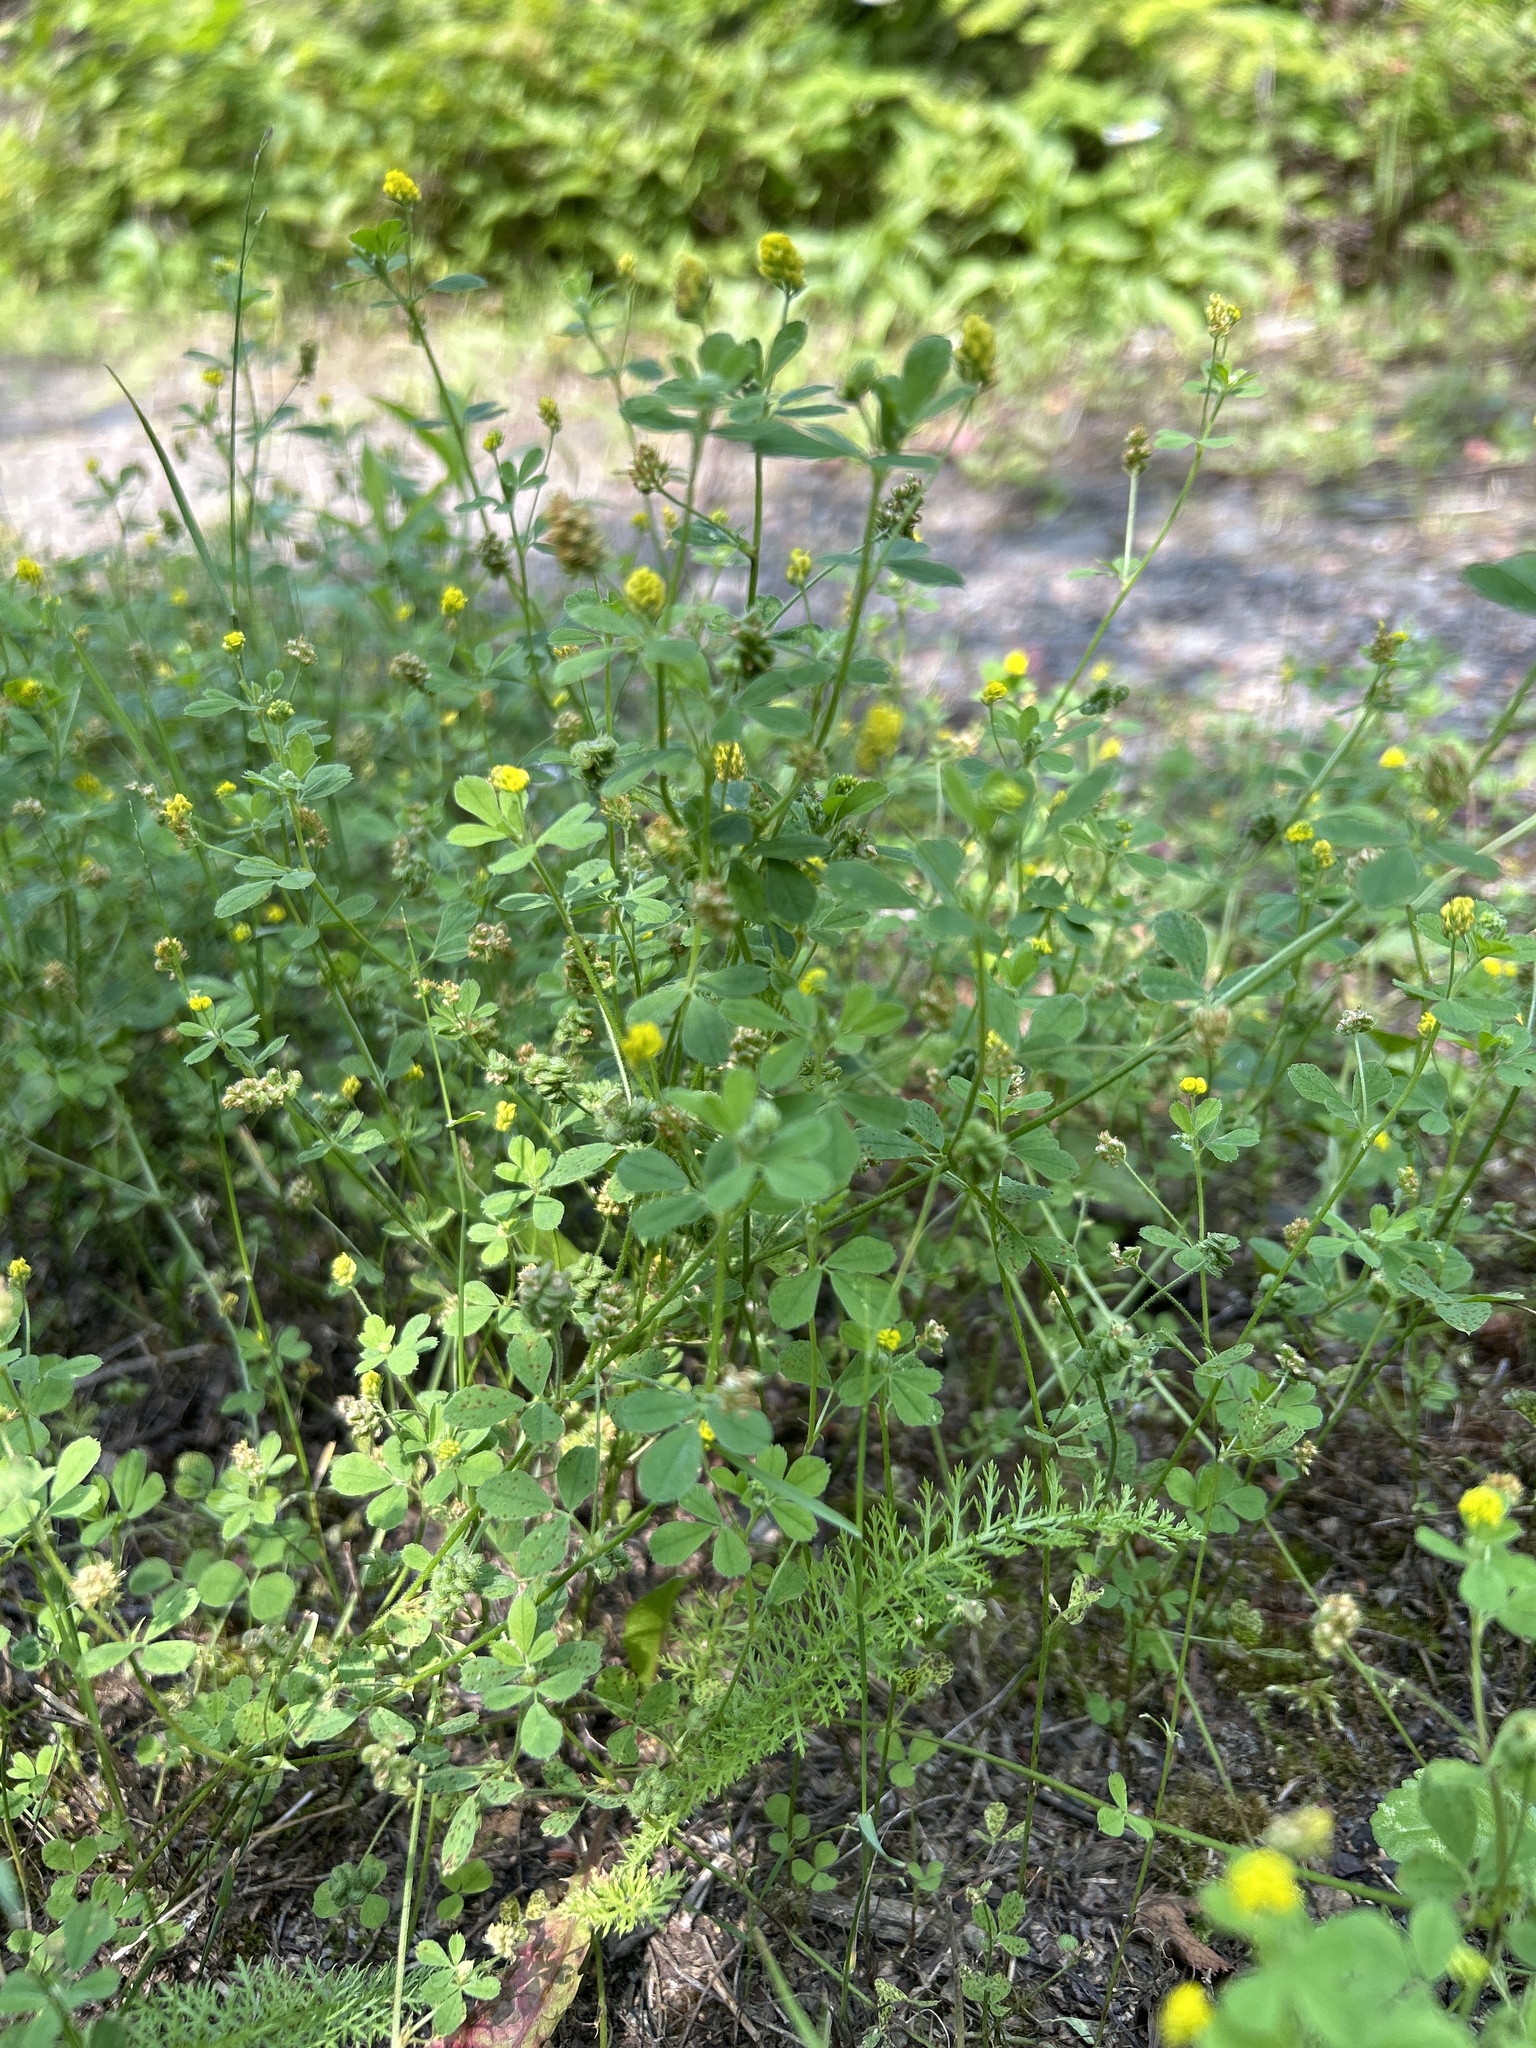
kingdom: Plantae
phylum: Tracheophyta
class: Magnoliopsida
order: Fabales
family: Fabaceae
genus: Medicago
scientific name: Medicago lupulina
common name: Black medick
